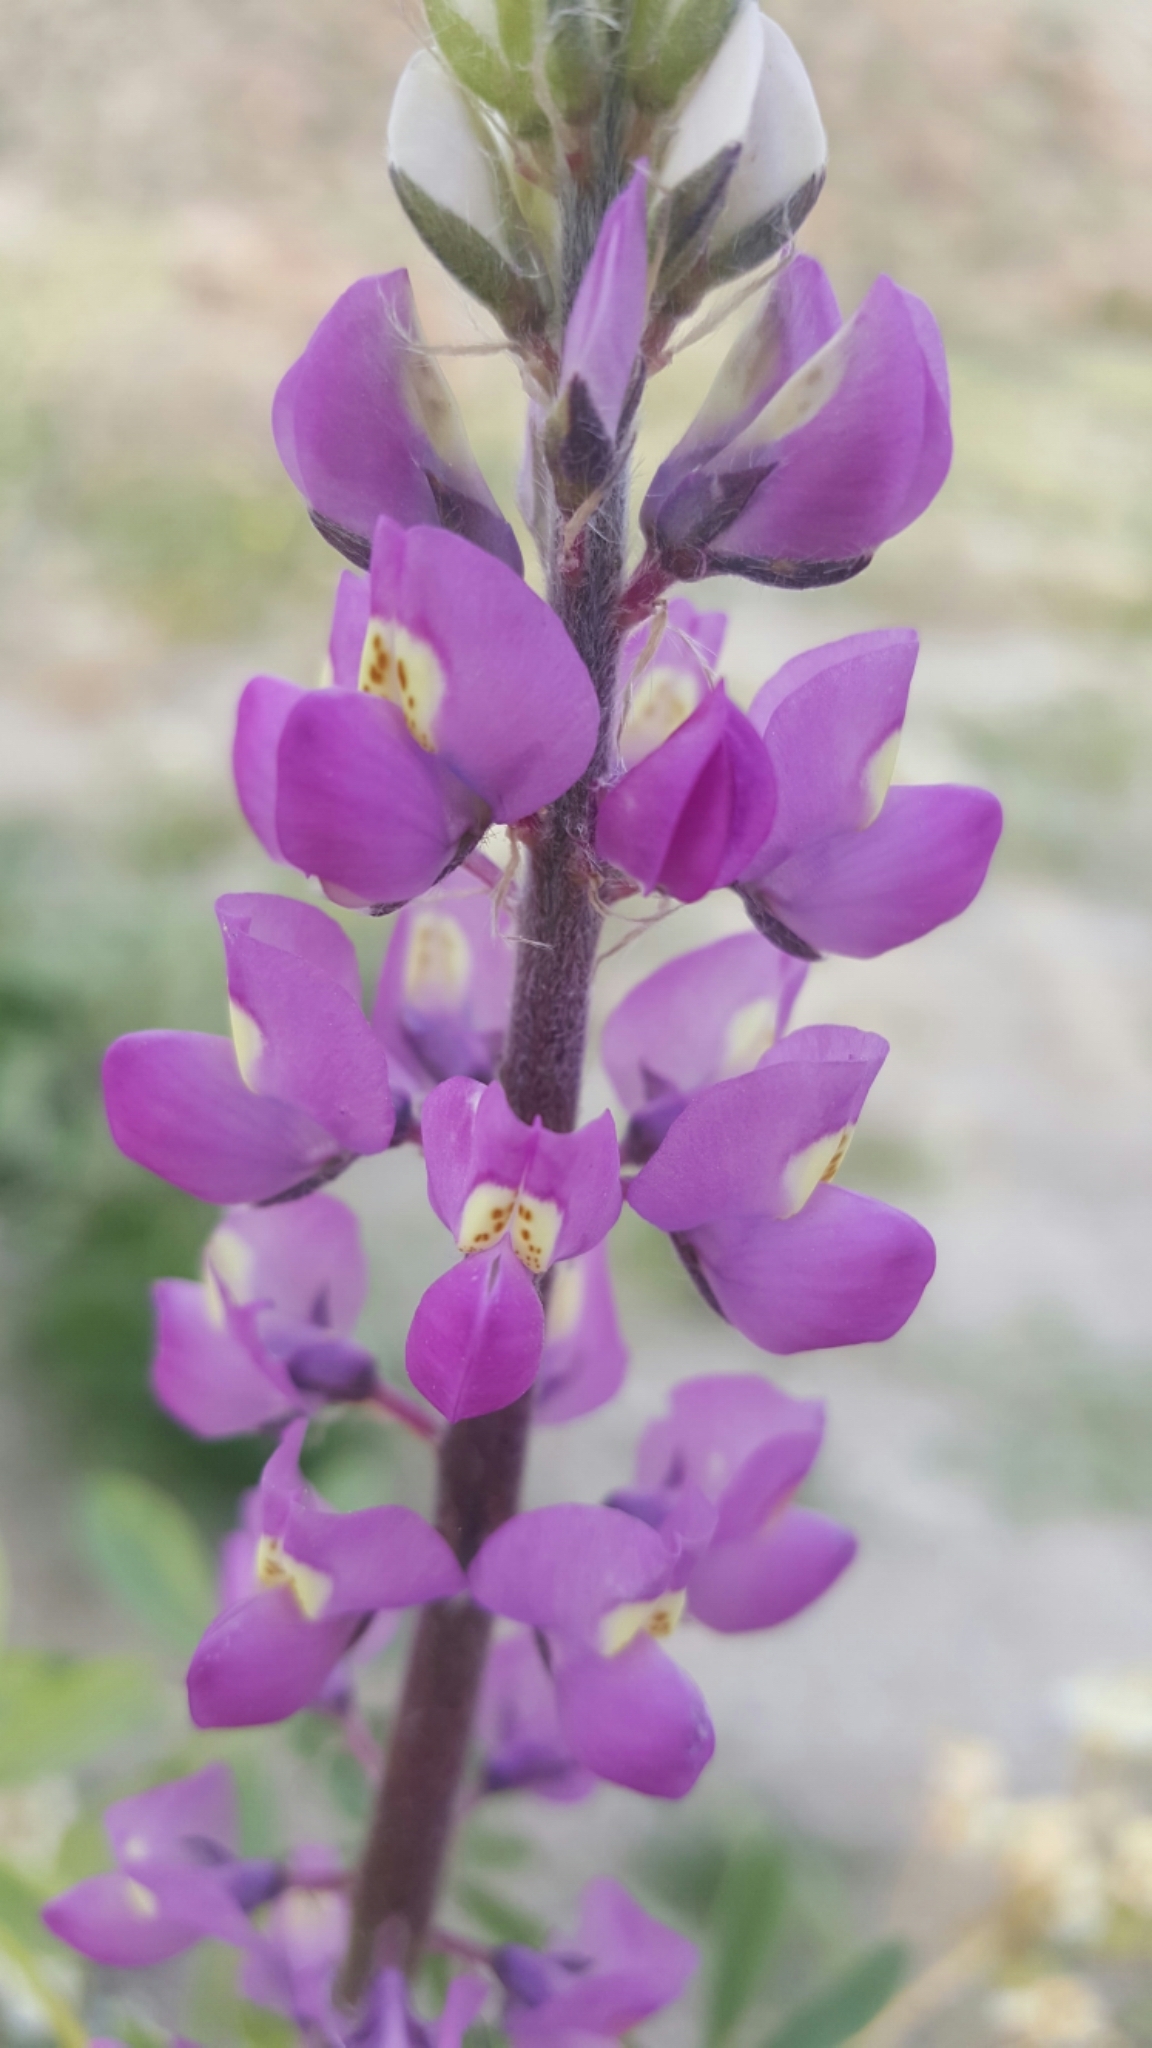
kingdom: Plantae
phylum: Tracheophyta
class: Magnoliopsida
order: Fabales
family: Fabaceae
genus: Lupinus
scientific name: Lupinus arizonicus
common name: Arizona lupine
